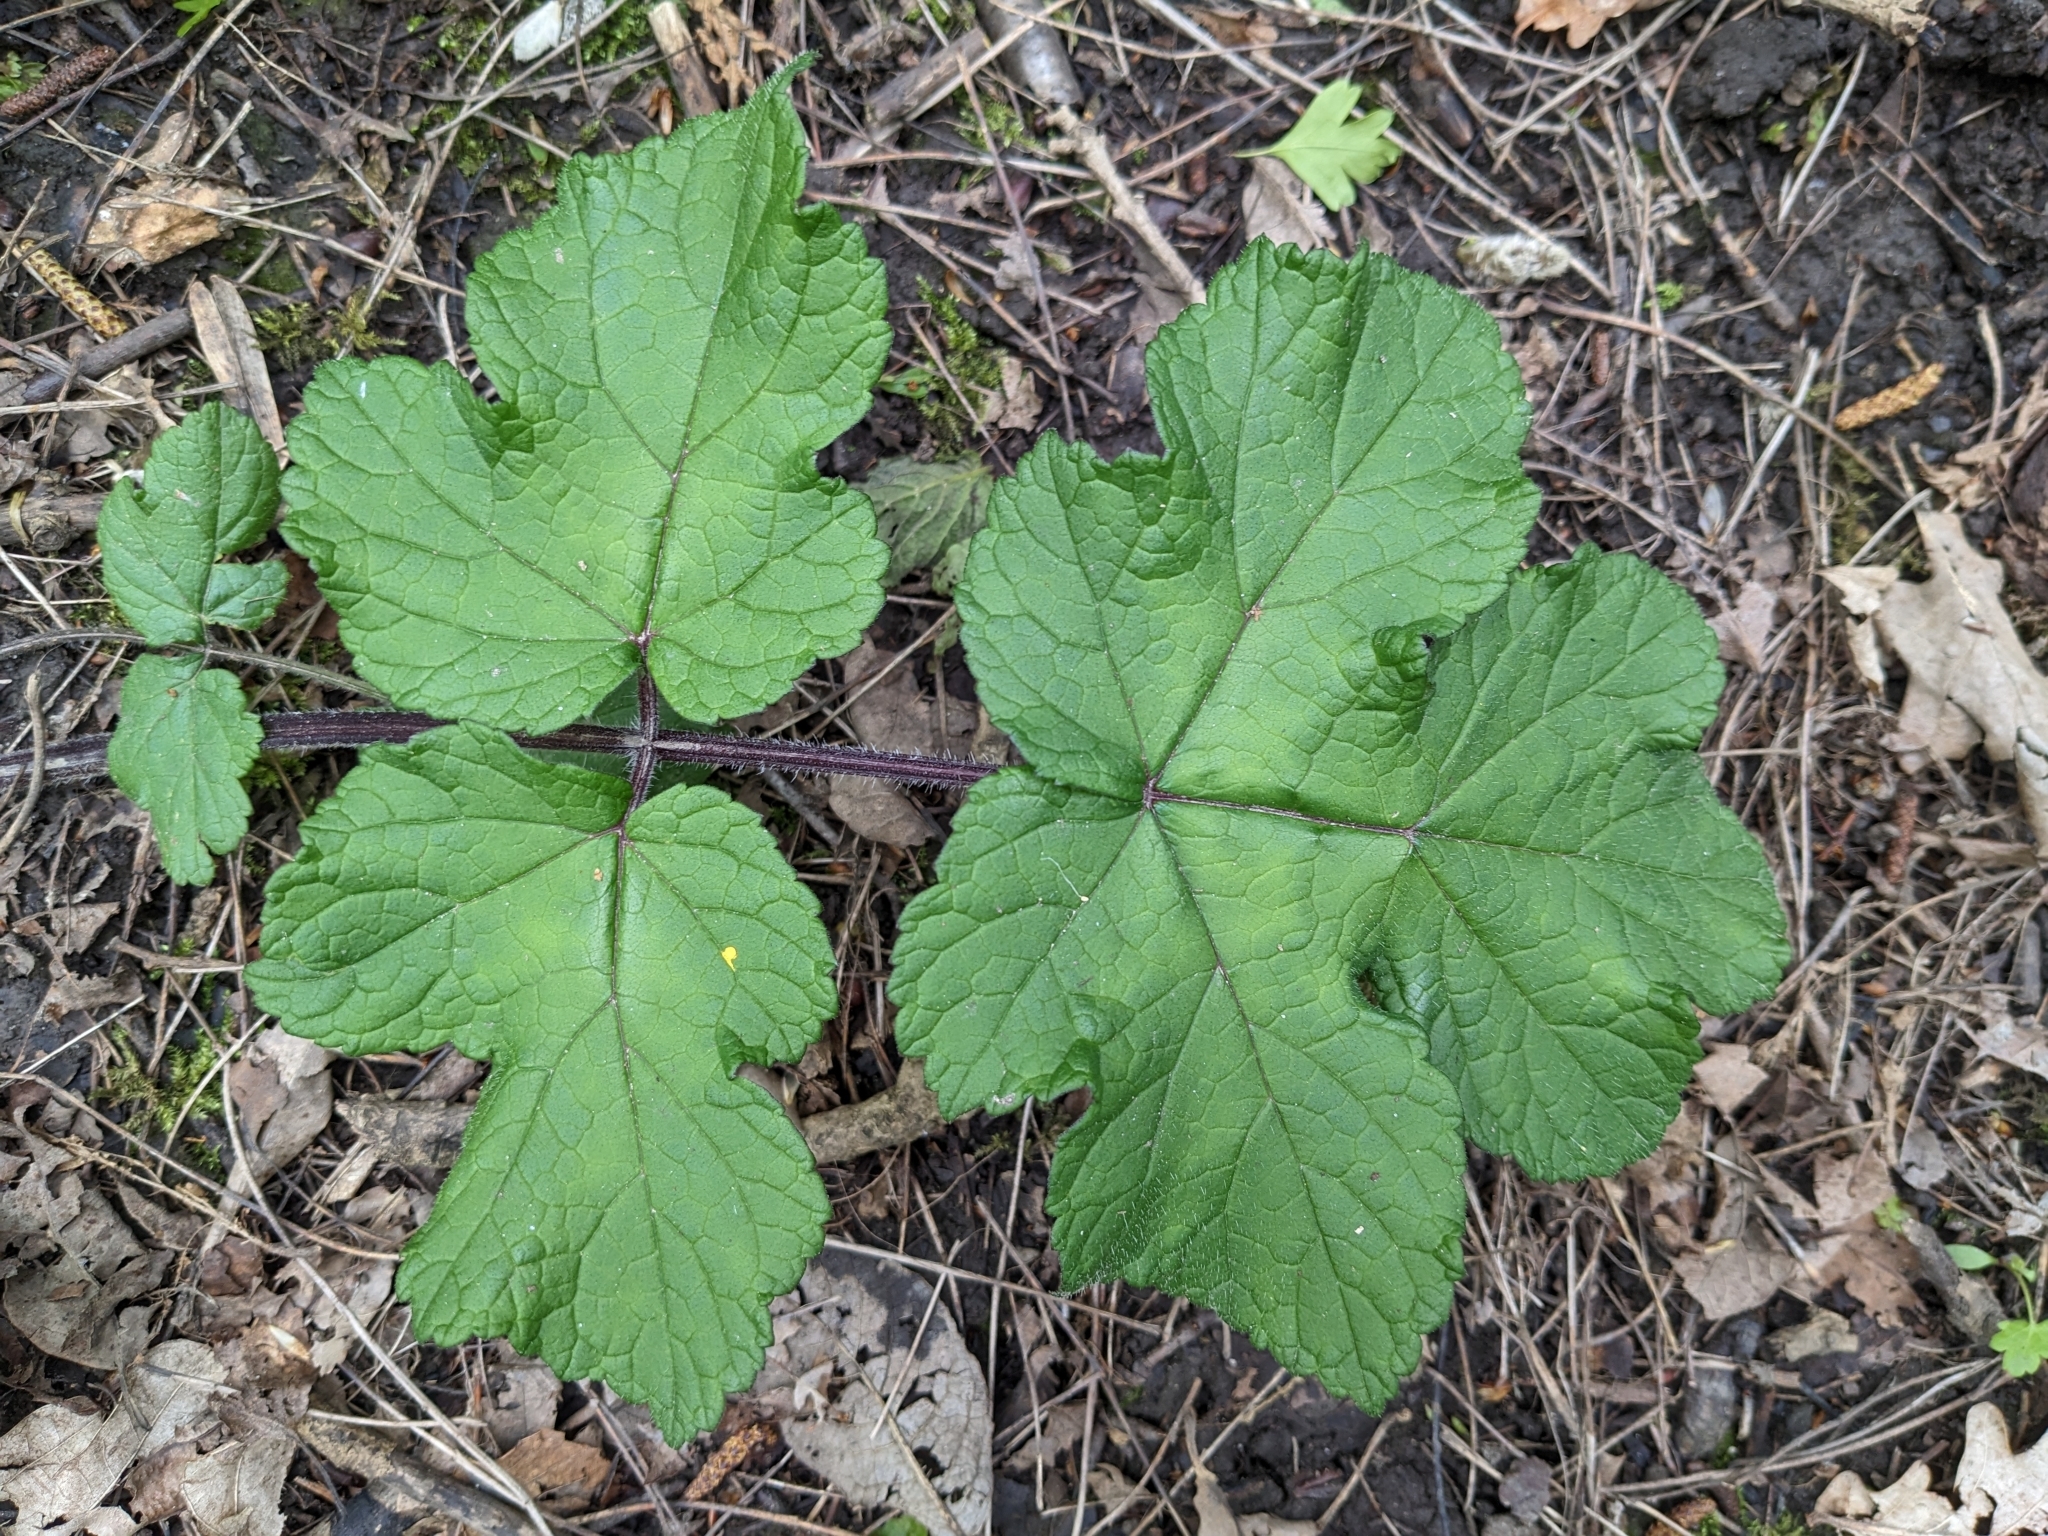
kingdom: Plantae
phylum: Tracheophyta
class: Magnoliopsida
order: Apiales
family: Apiaceae
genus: Heracleum
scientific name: Heracleum sphondylium
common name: Hogweed
